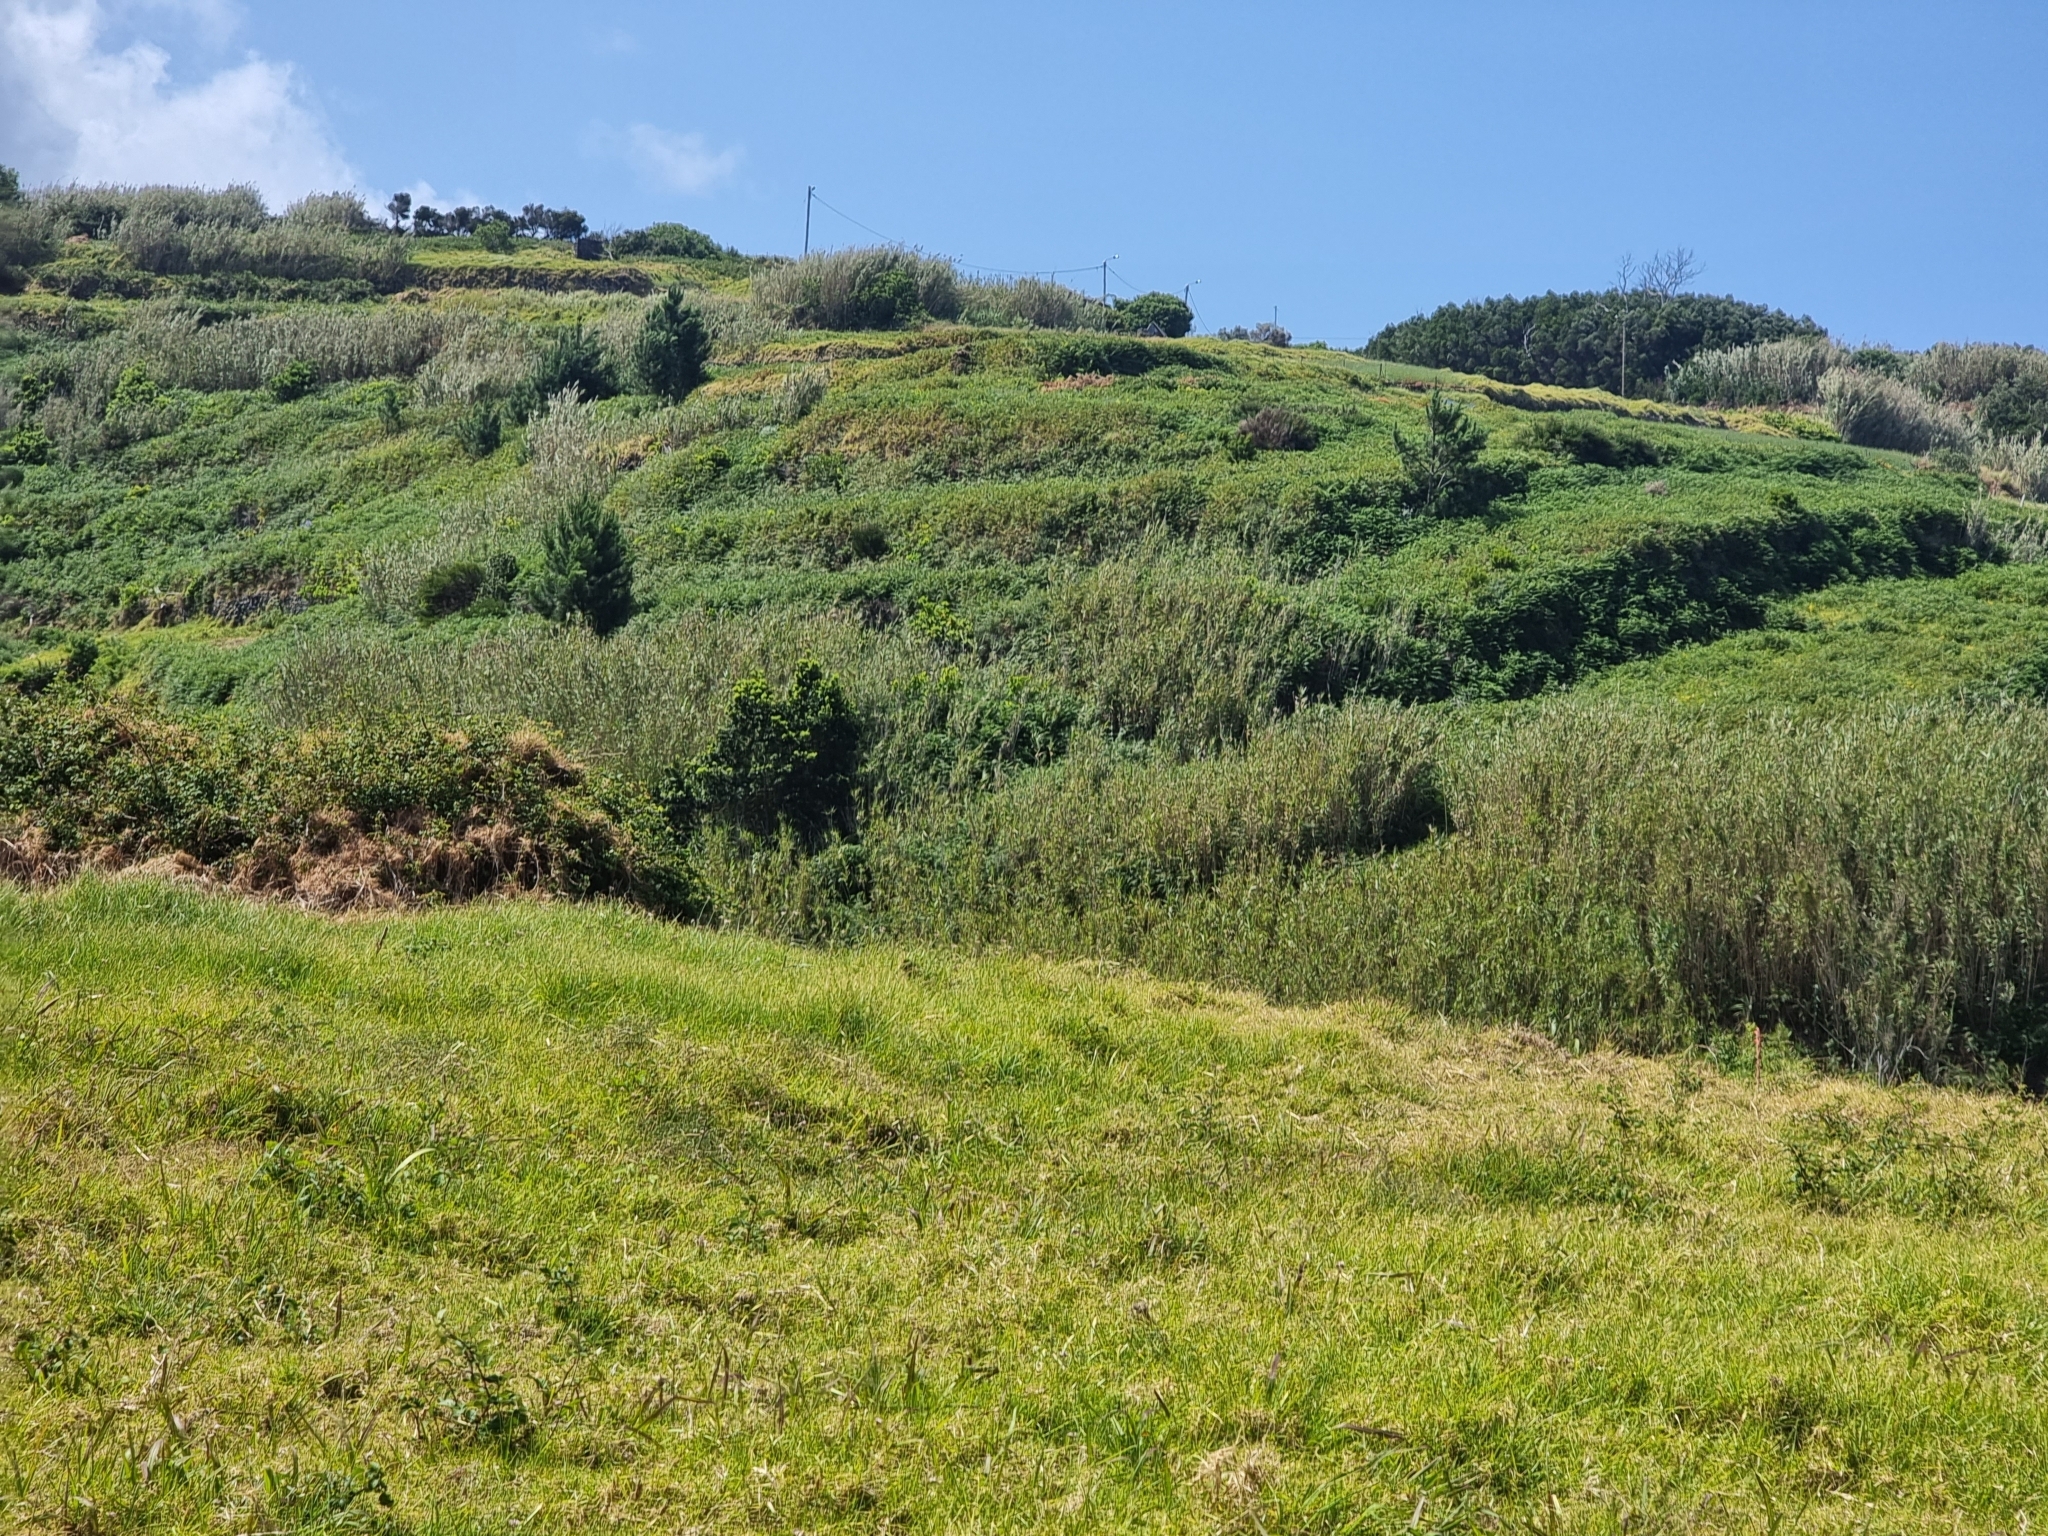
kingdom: Plantae
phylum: Tracheophyta
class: Liliopsida
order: Poales
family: Poaceae
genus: Arundo
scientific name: Arundo donax
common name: Giant reed
